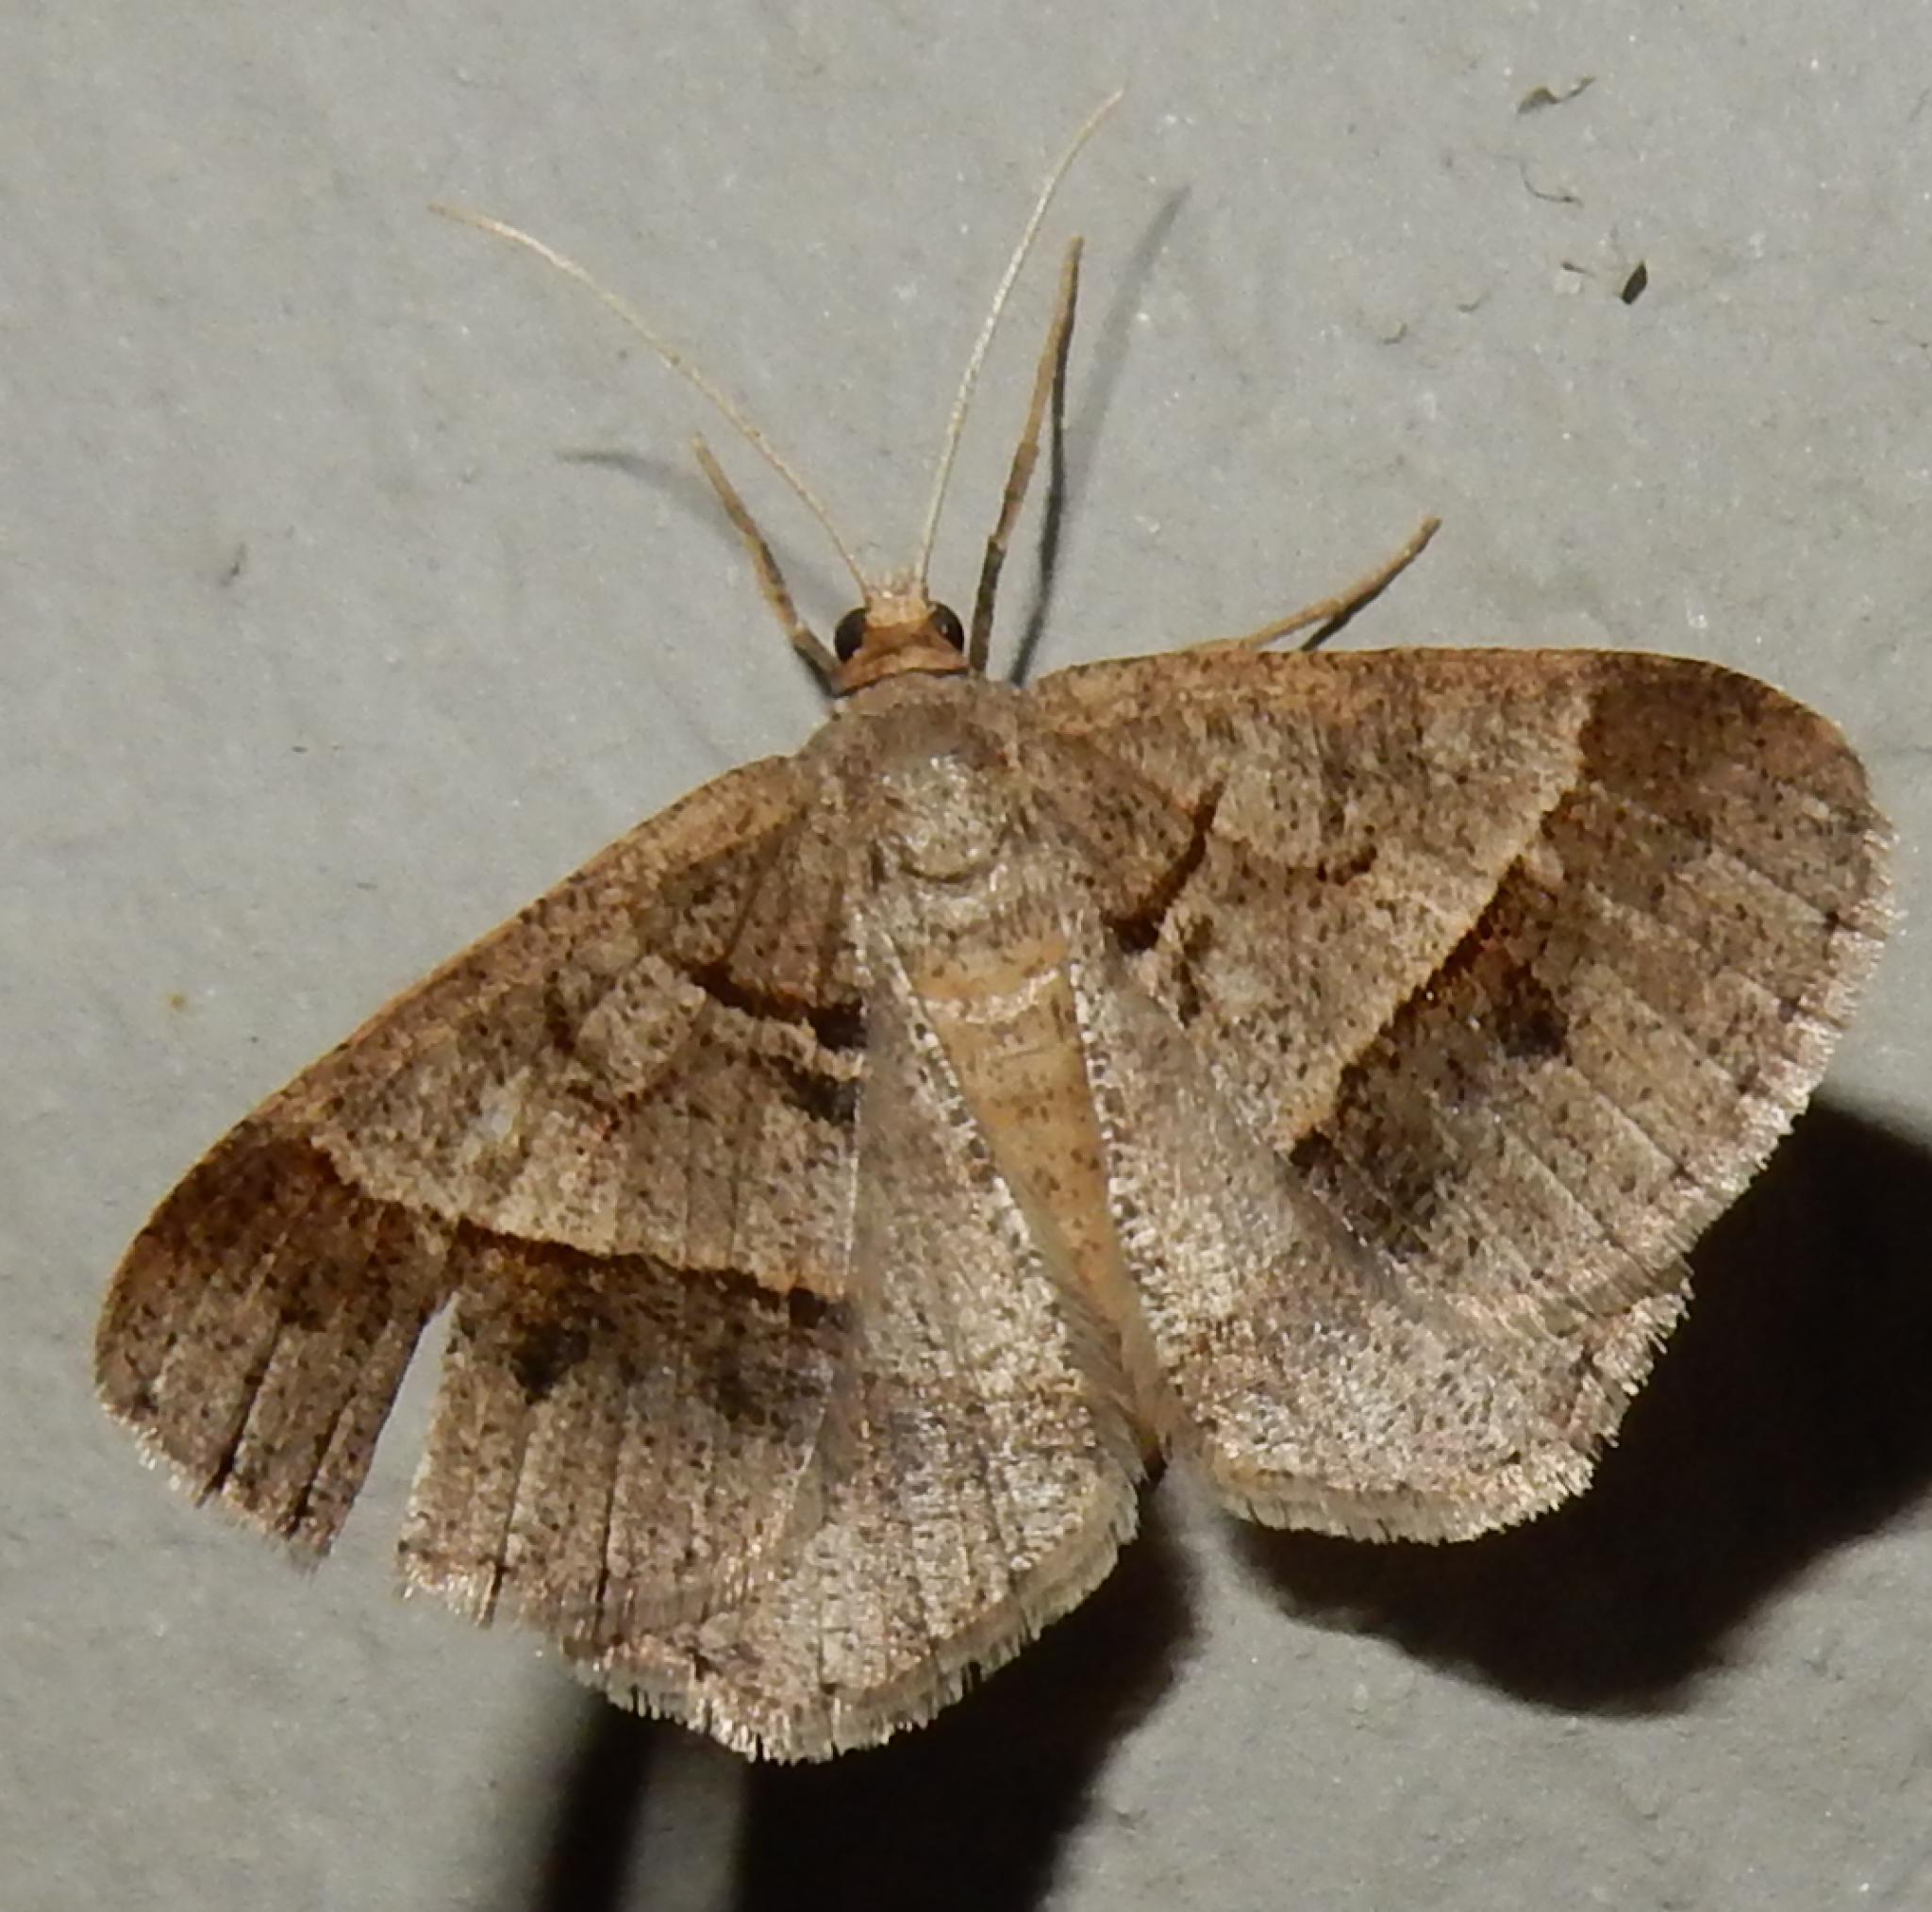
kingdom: Animalia
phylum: Arthropoda
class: Insecta
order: Lepidoptera
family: Geometridae
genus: Isturgia
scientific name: Isturgia deerraria
